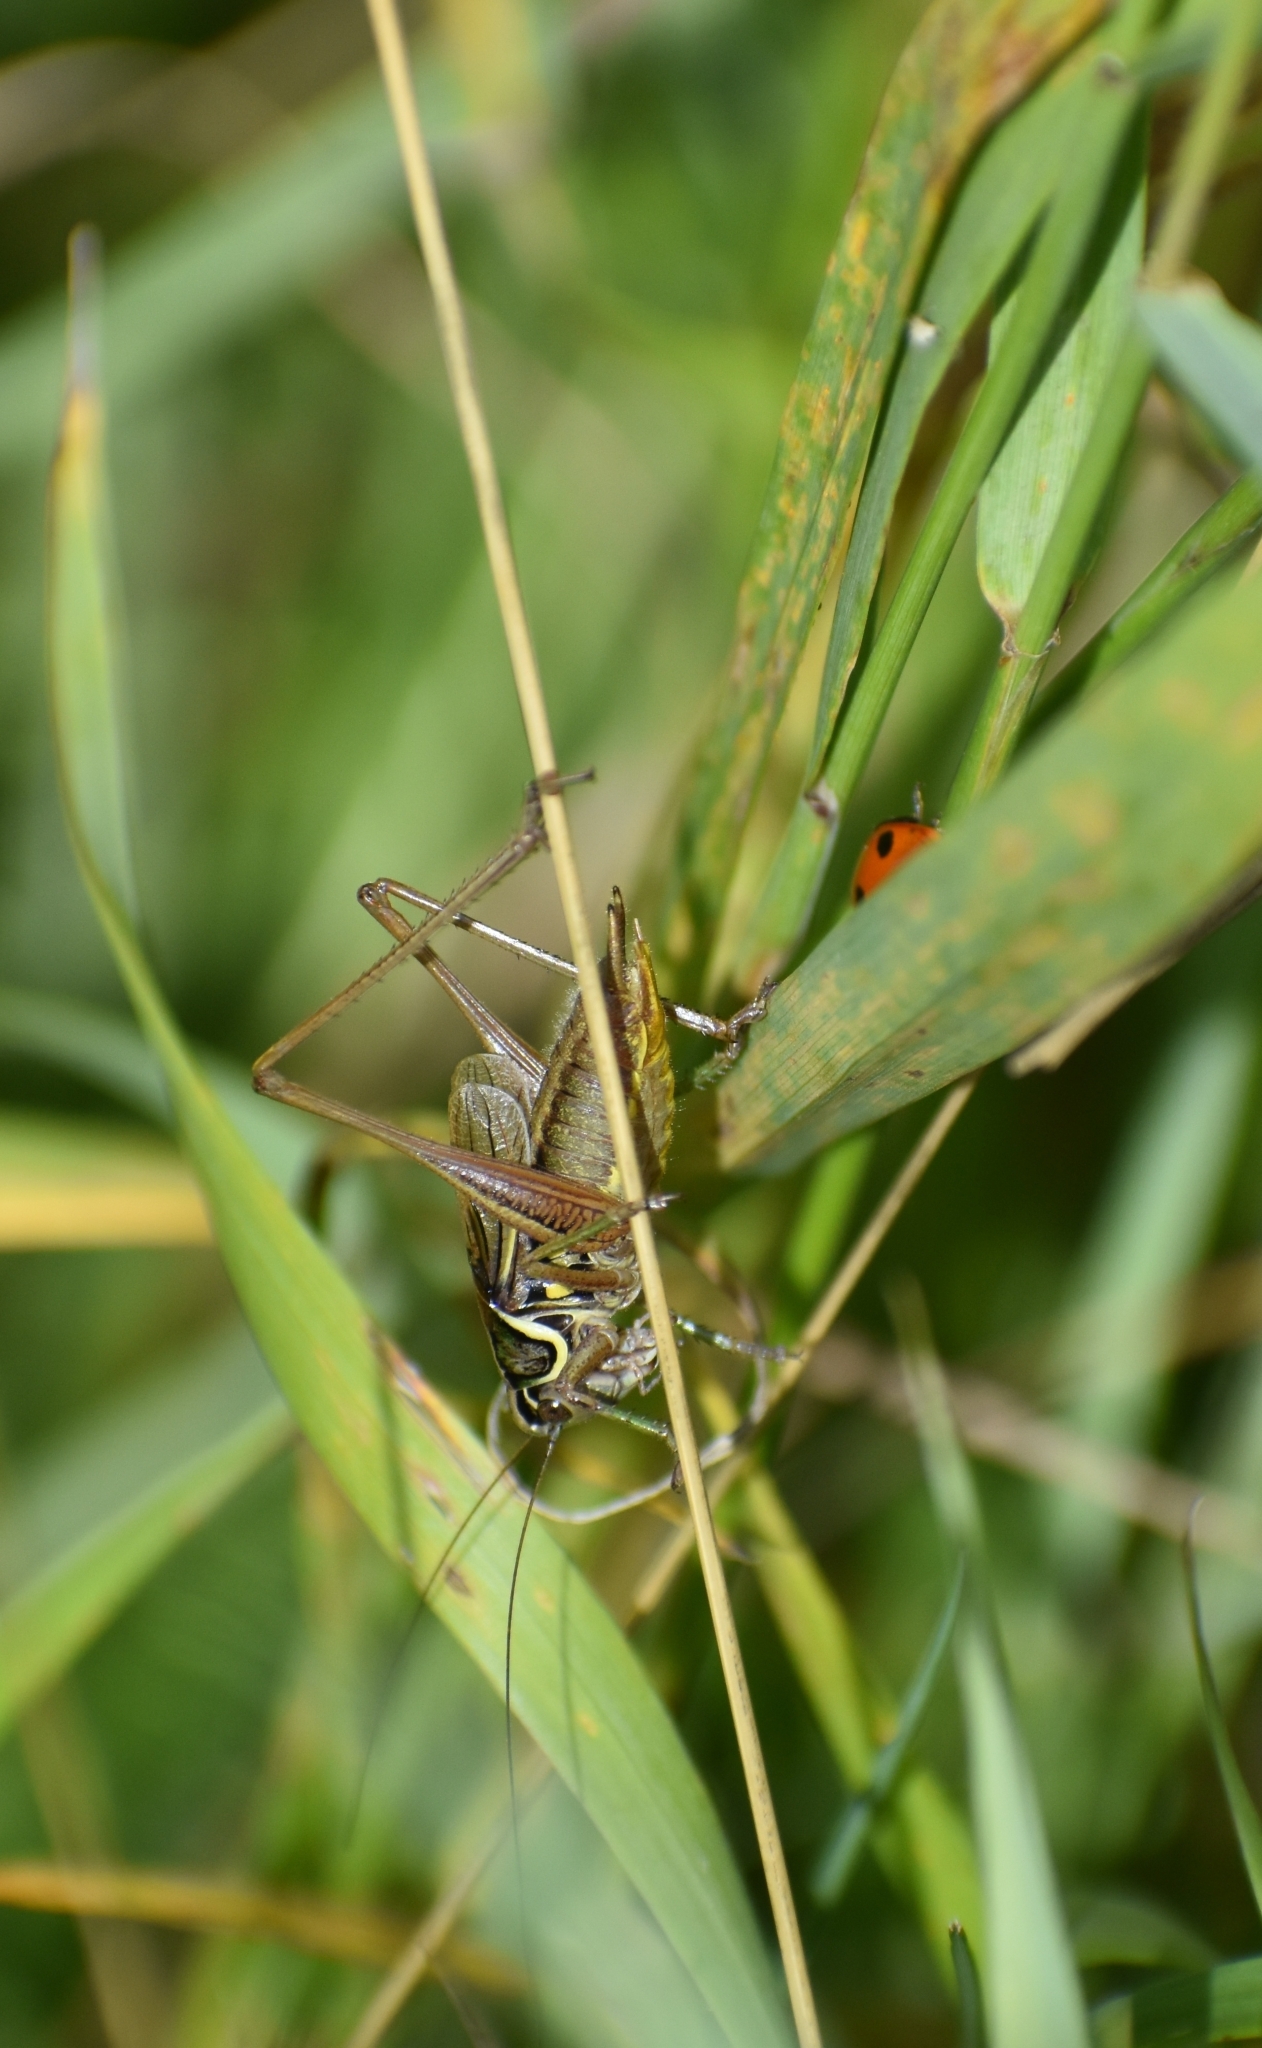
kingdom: Animalia
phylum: Arthropoda
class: Insecta
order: Orthoptera
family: Tettigoniidae
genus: Roeseliana
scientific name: Roeseliana roeselii
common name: Roesel's bush cricket
